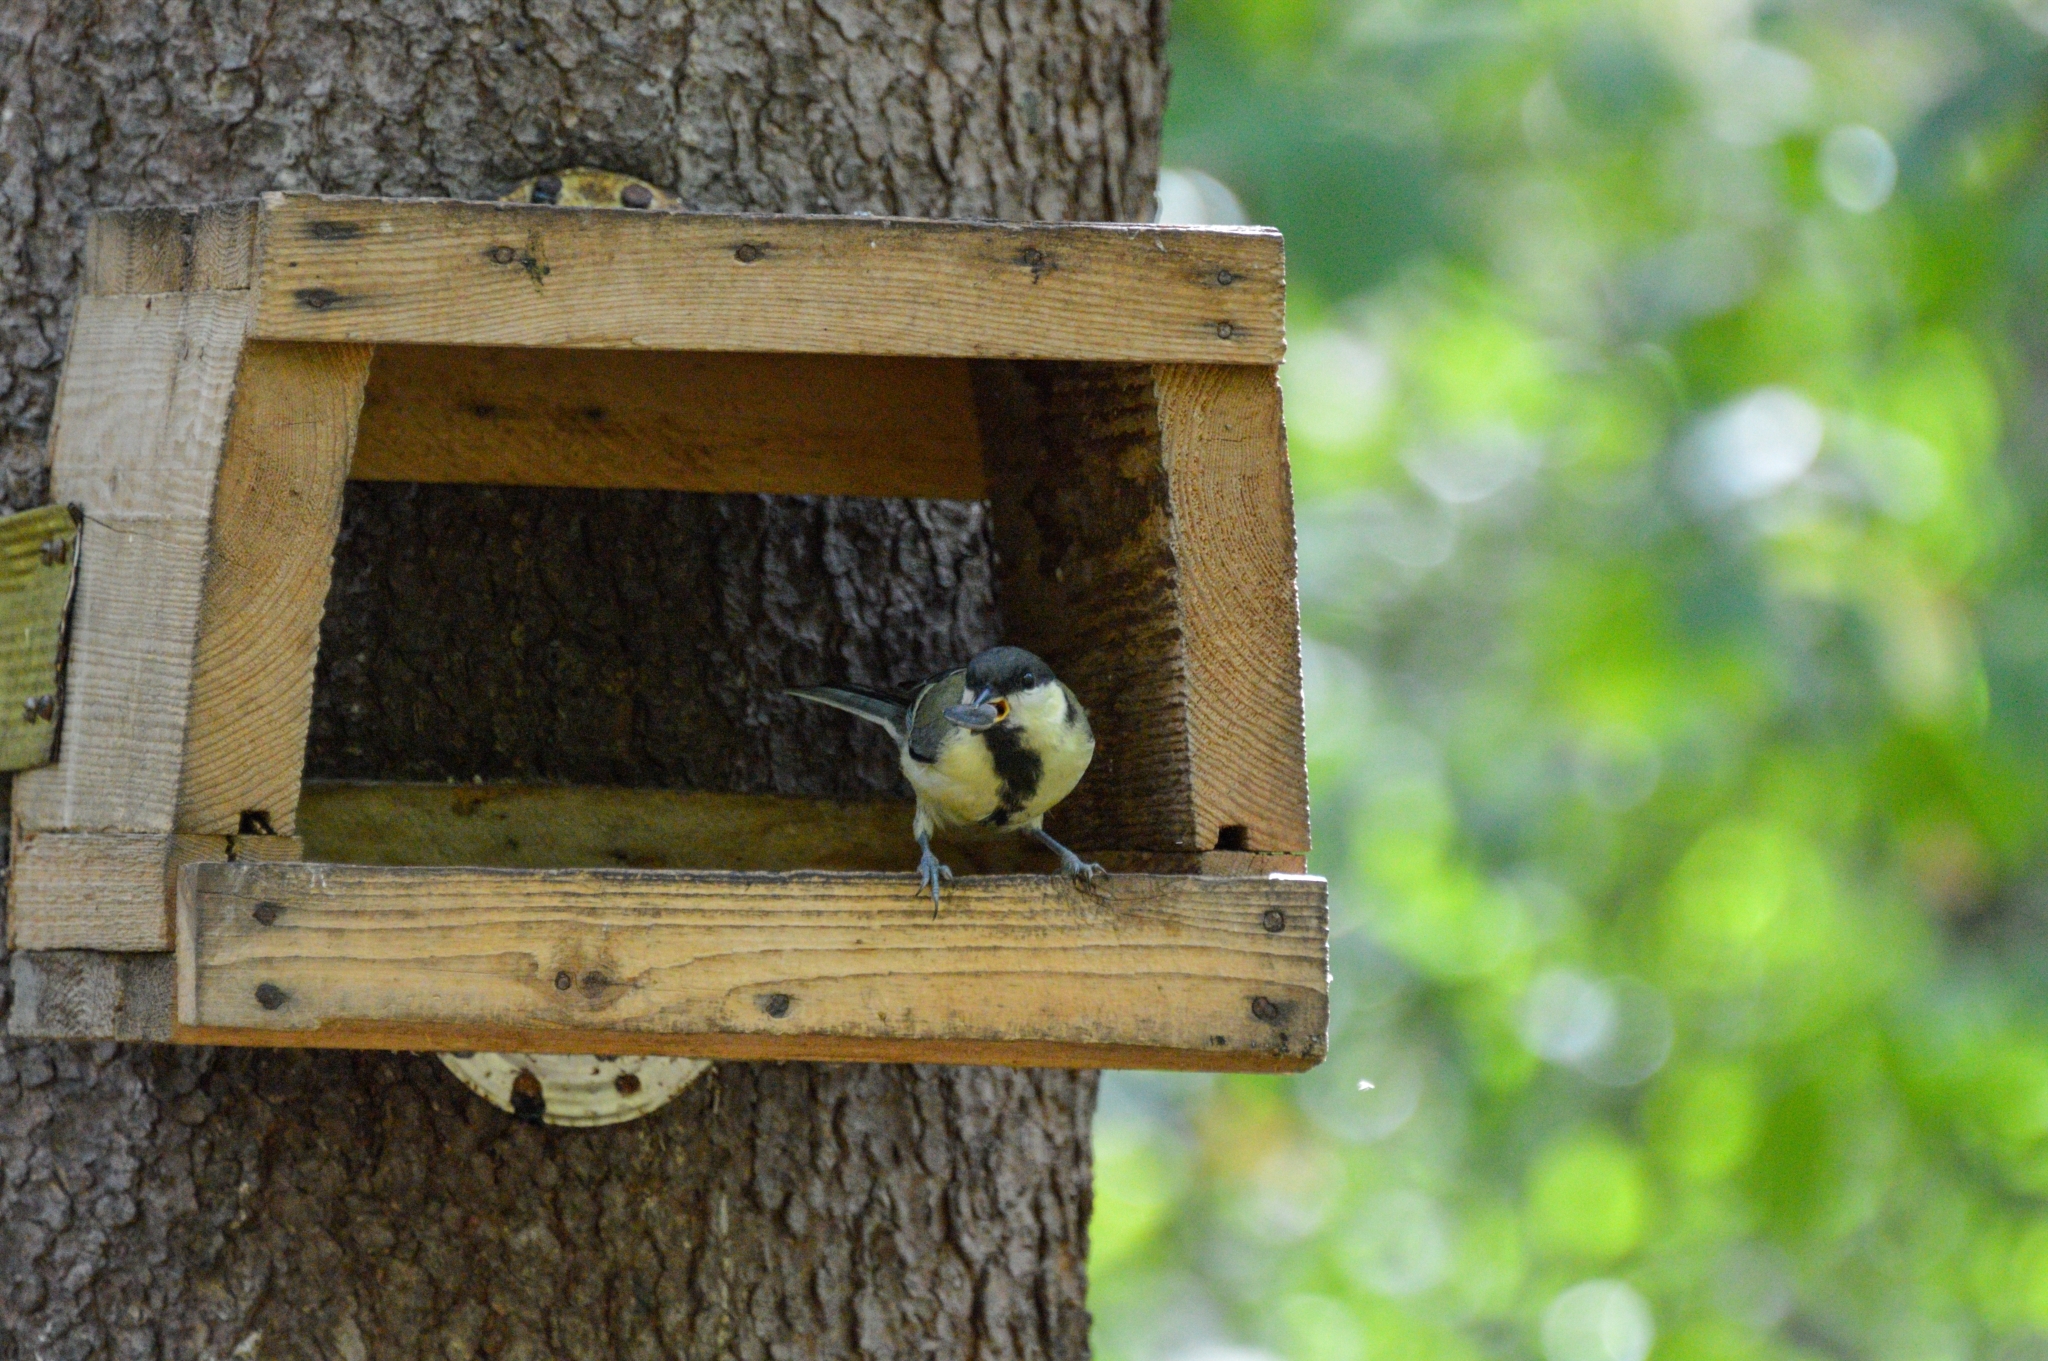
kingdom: Animalia
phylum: Chordata
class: Aves
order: Passeriformes
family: Paridae
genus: Parus
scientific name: Parus major
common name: Great tit
